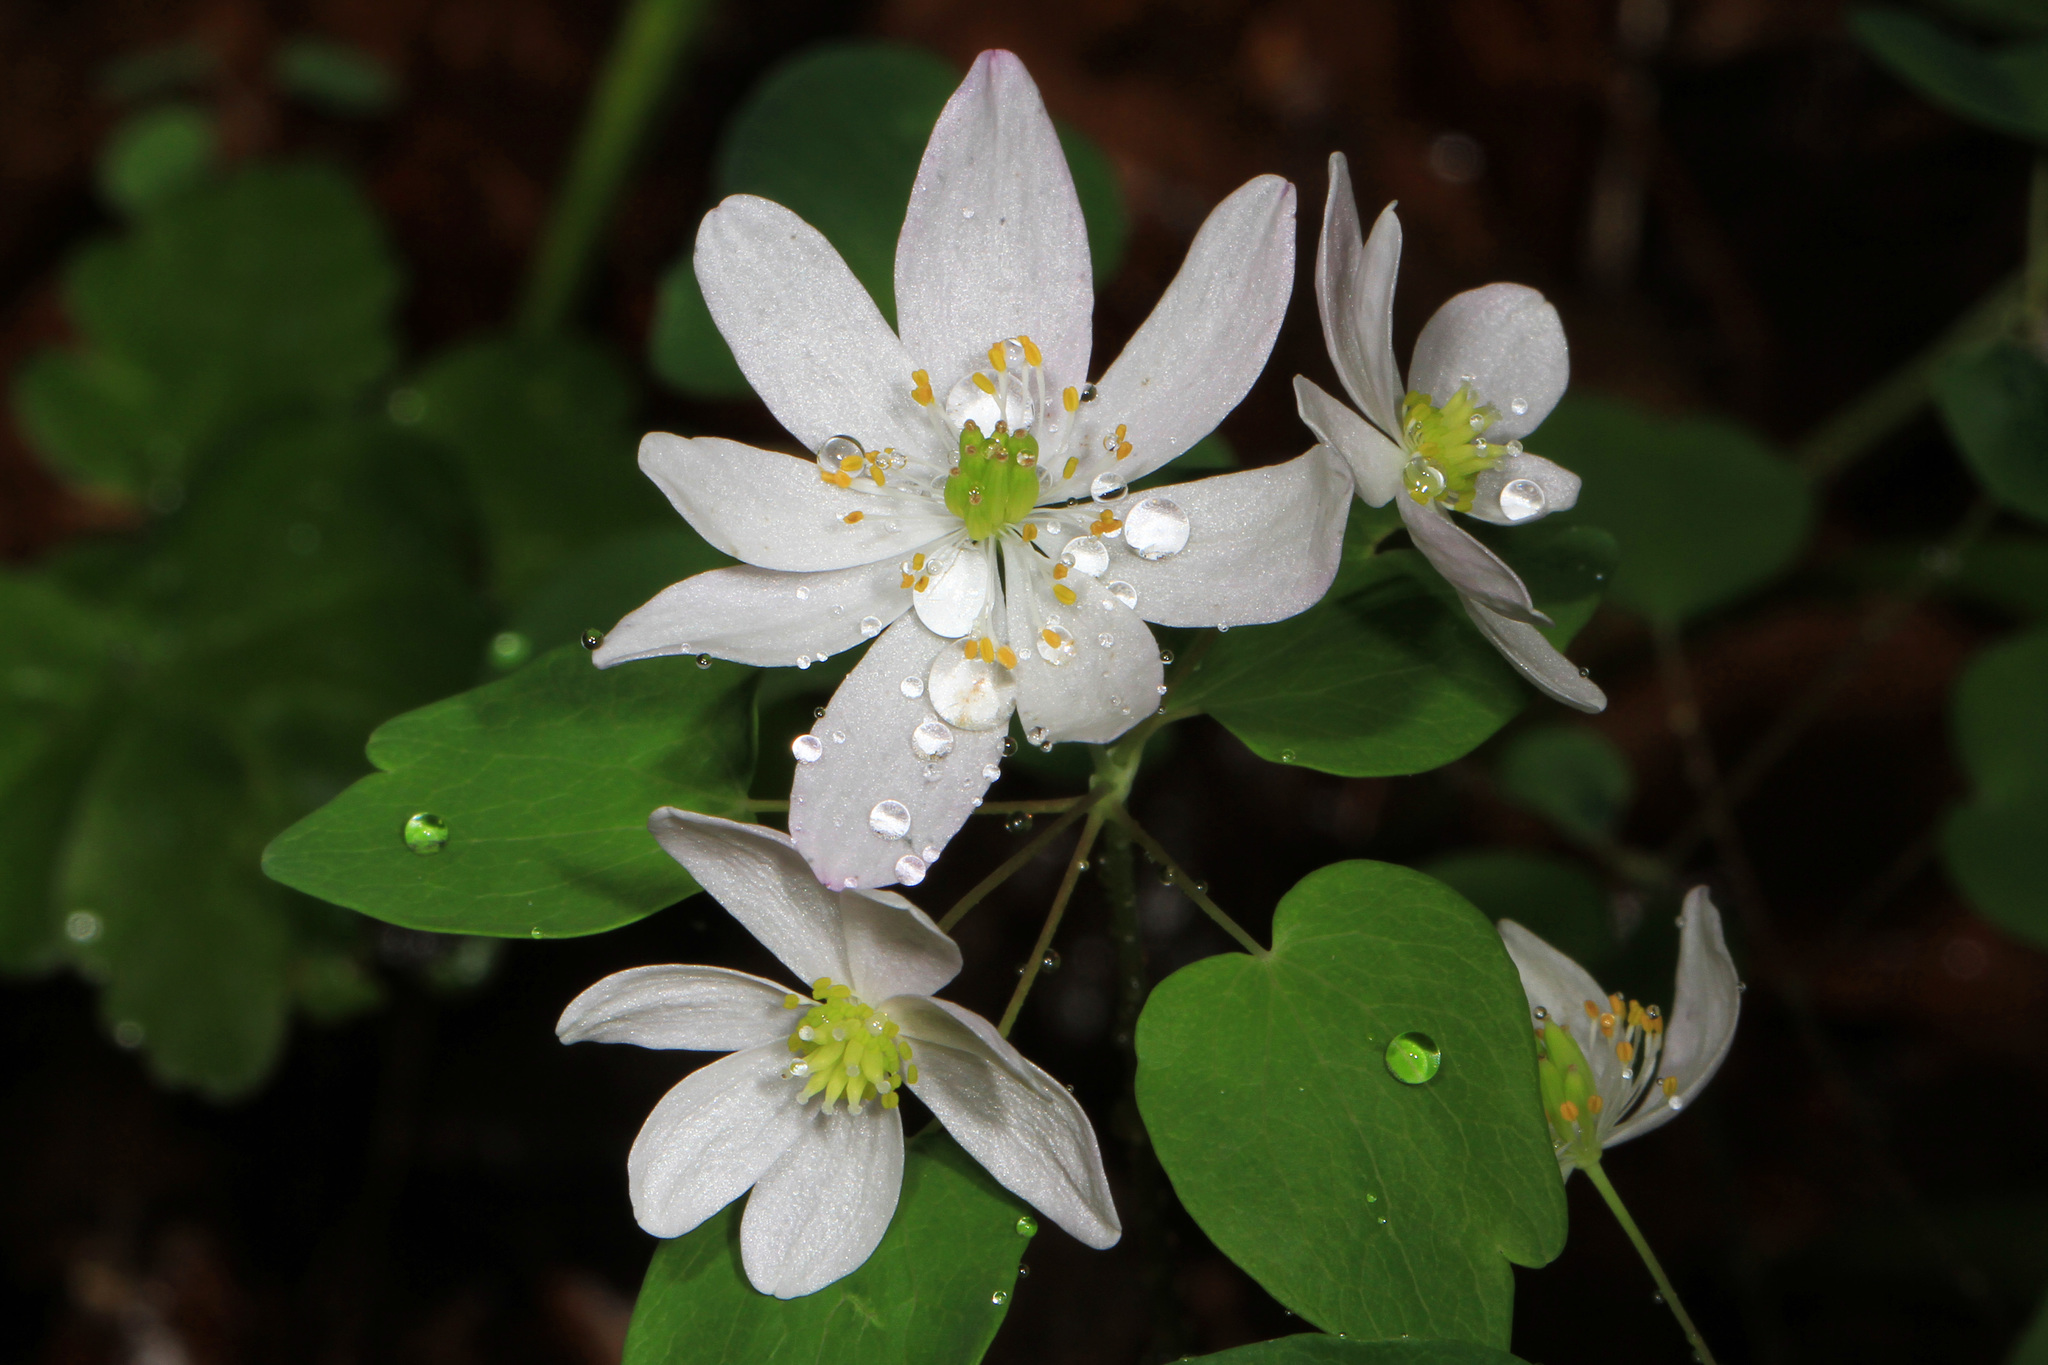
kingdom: Plantae
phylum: Tracheophyta
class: Magnoliopsida
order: Ranunculales
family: Ranunculaceae
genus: Thalictrum
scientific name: Thalictrum thalictroides
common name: Rue-anemone
